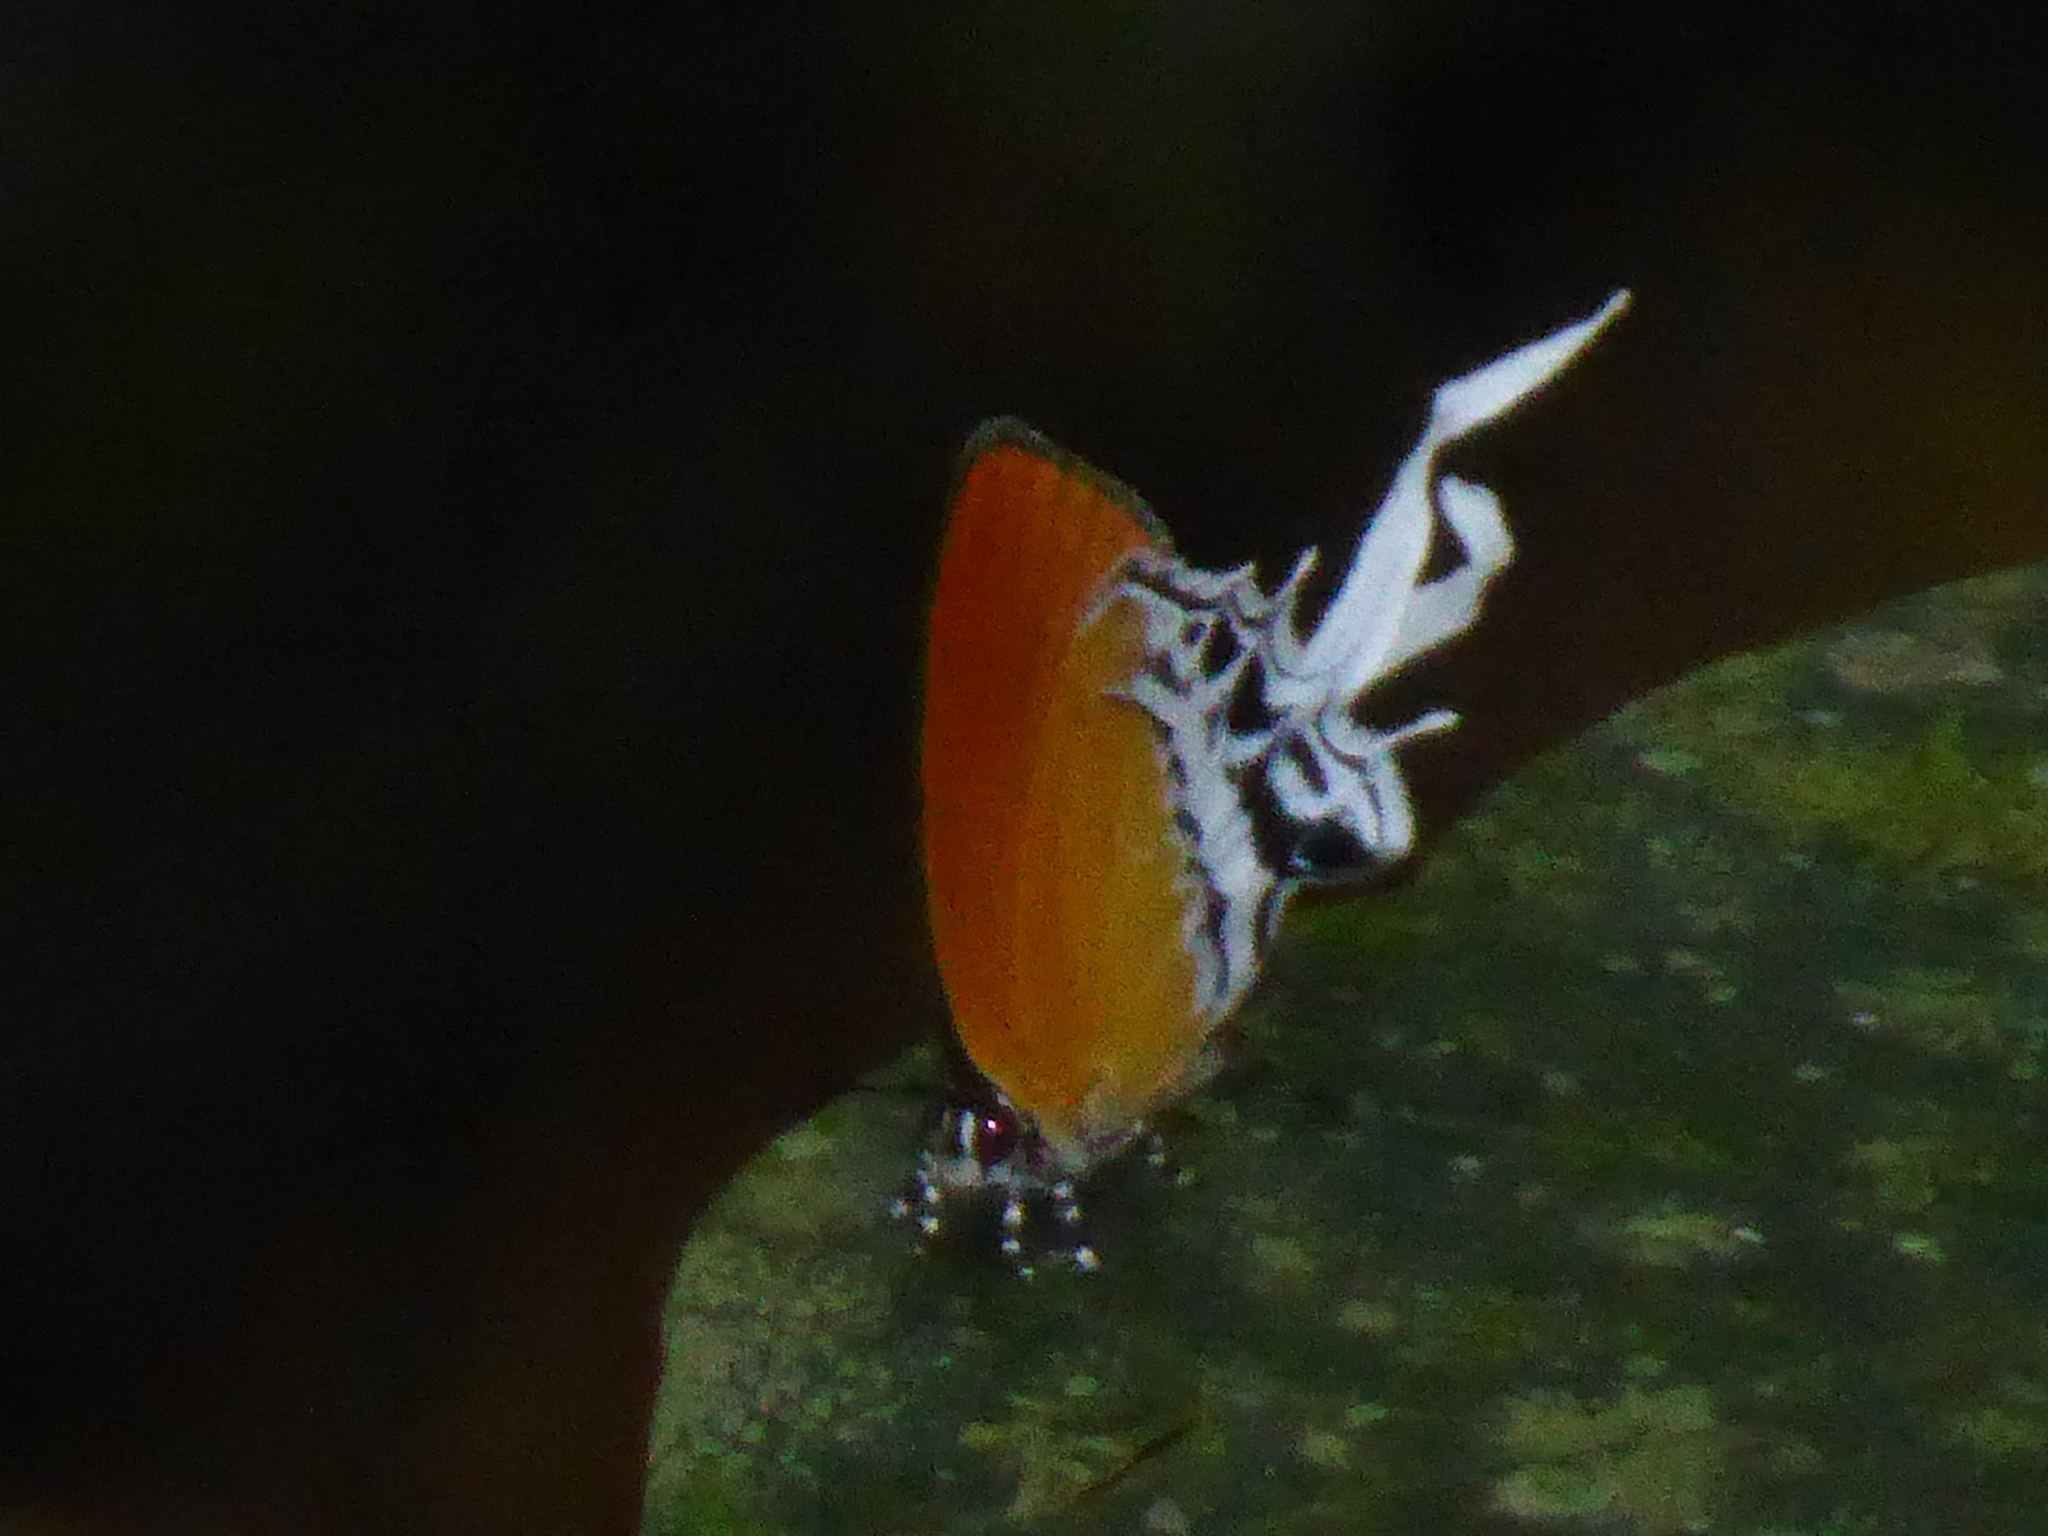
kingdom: Animalia
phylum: Arthropoda
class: Insecta
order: Lepidoptera
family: Lycaenidae
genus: Eooxylides
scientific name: Eooxylides tharis
